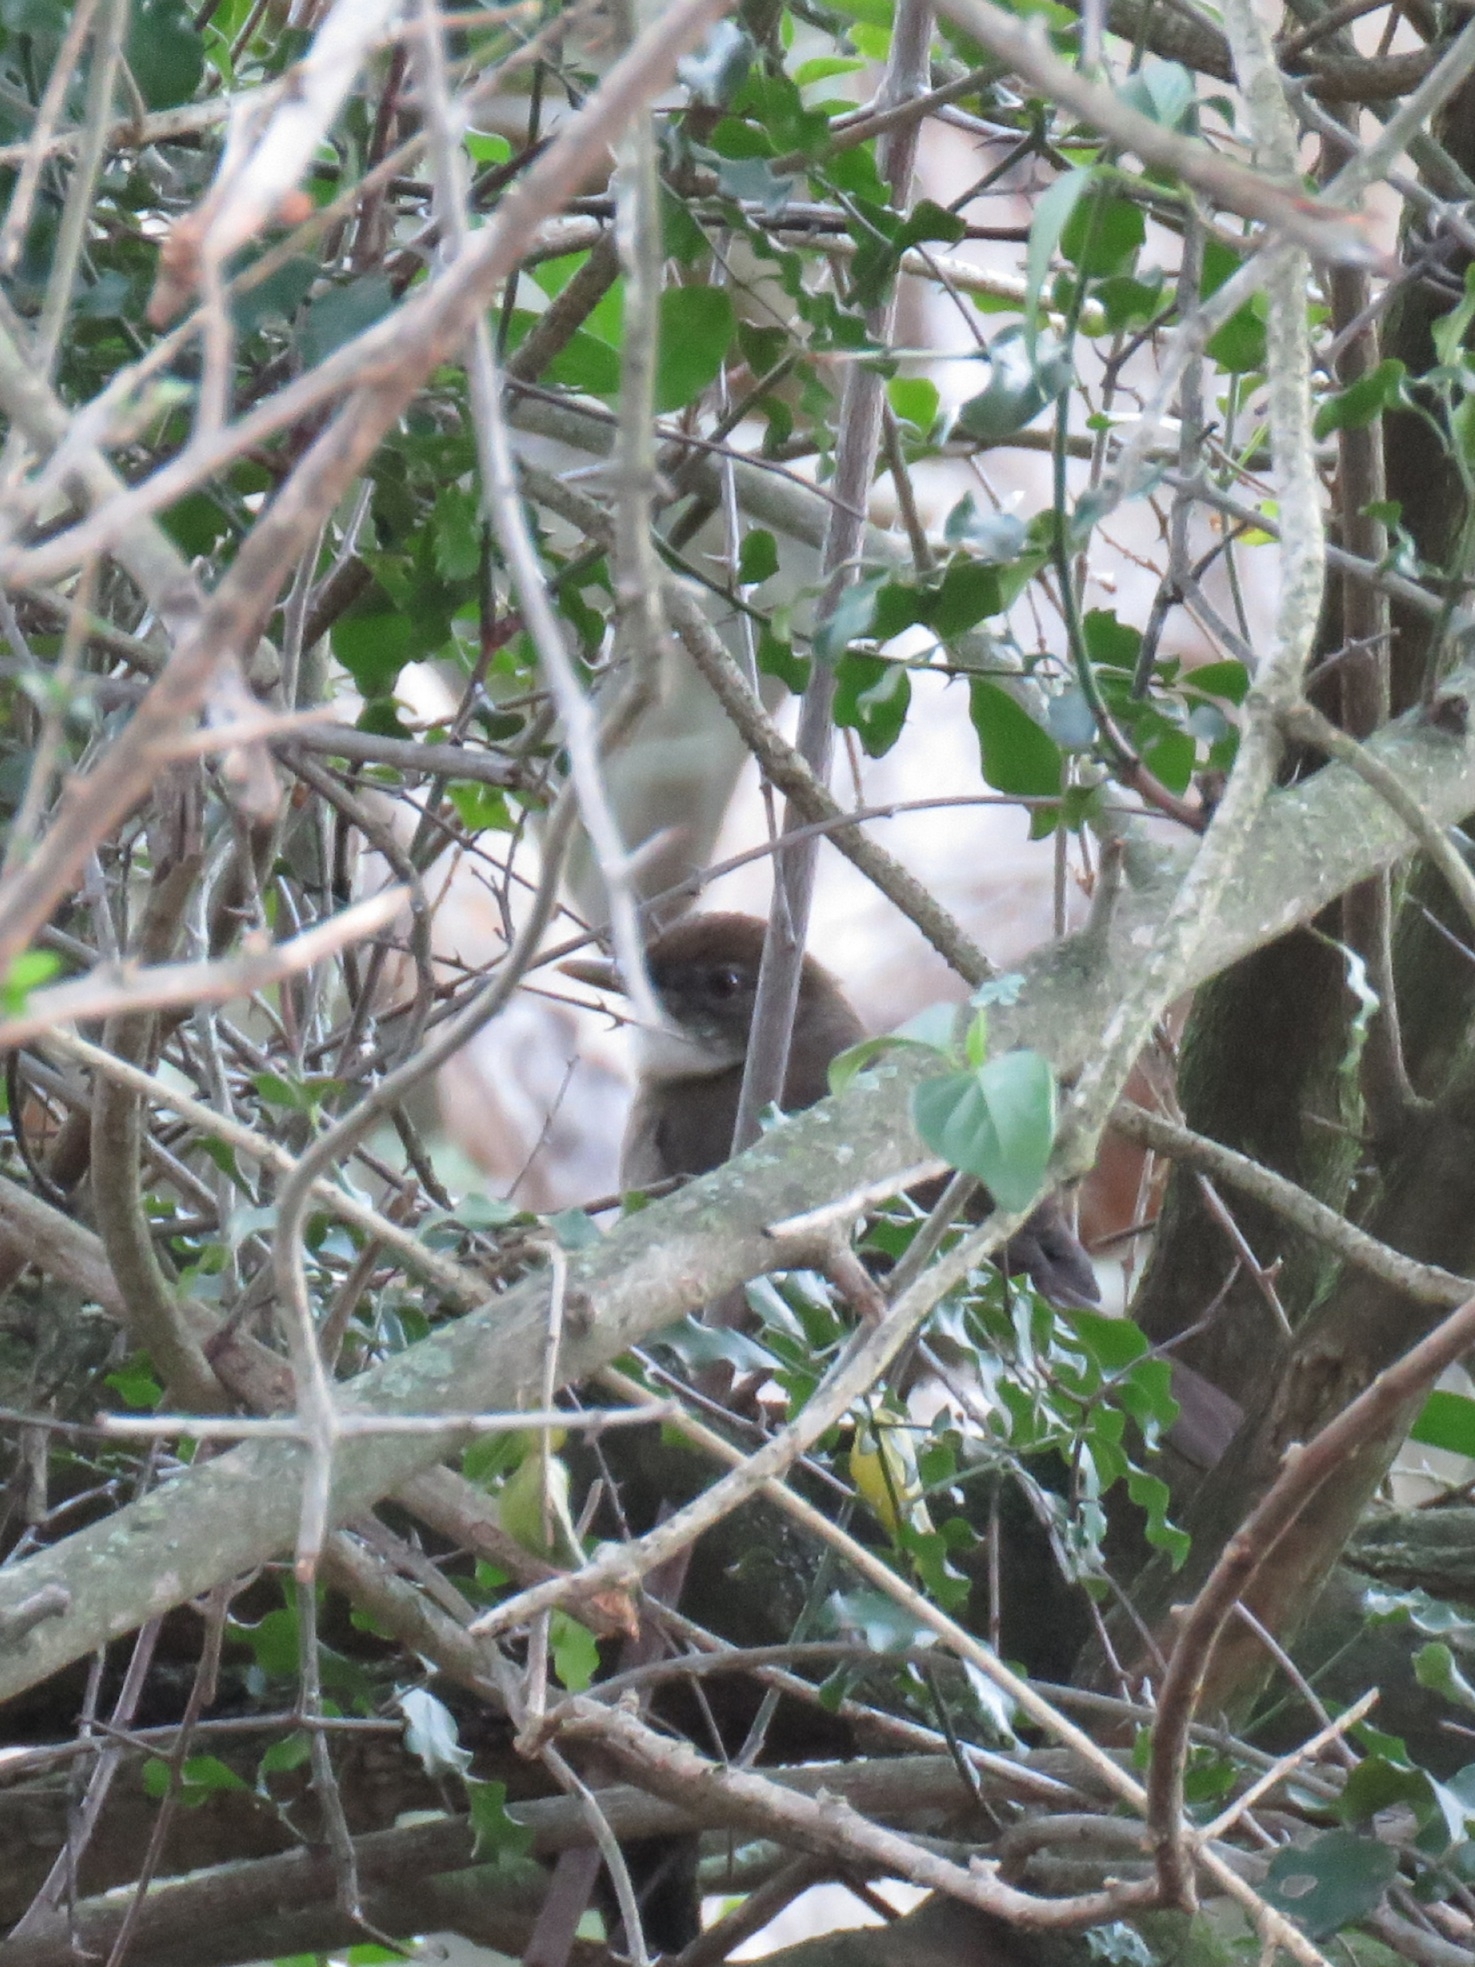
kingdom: Animalia
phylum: Chordata
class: Aves
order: Passeriformes
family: Pycnonotidae
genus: Phyllastrephus
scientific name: Phyllastrephus terrestris
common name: Terrestrial brownbul
